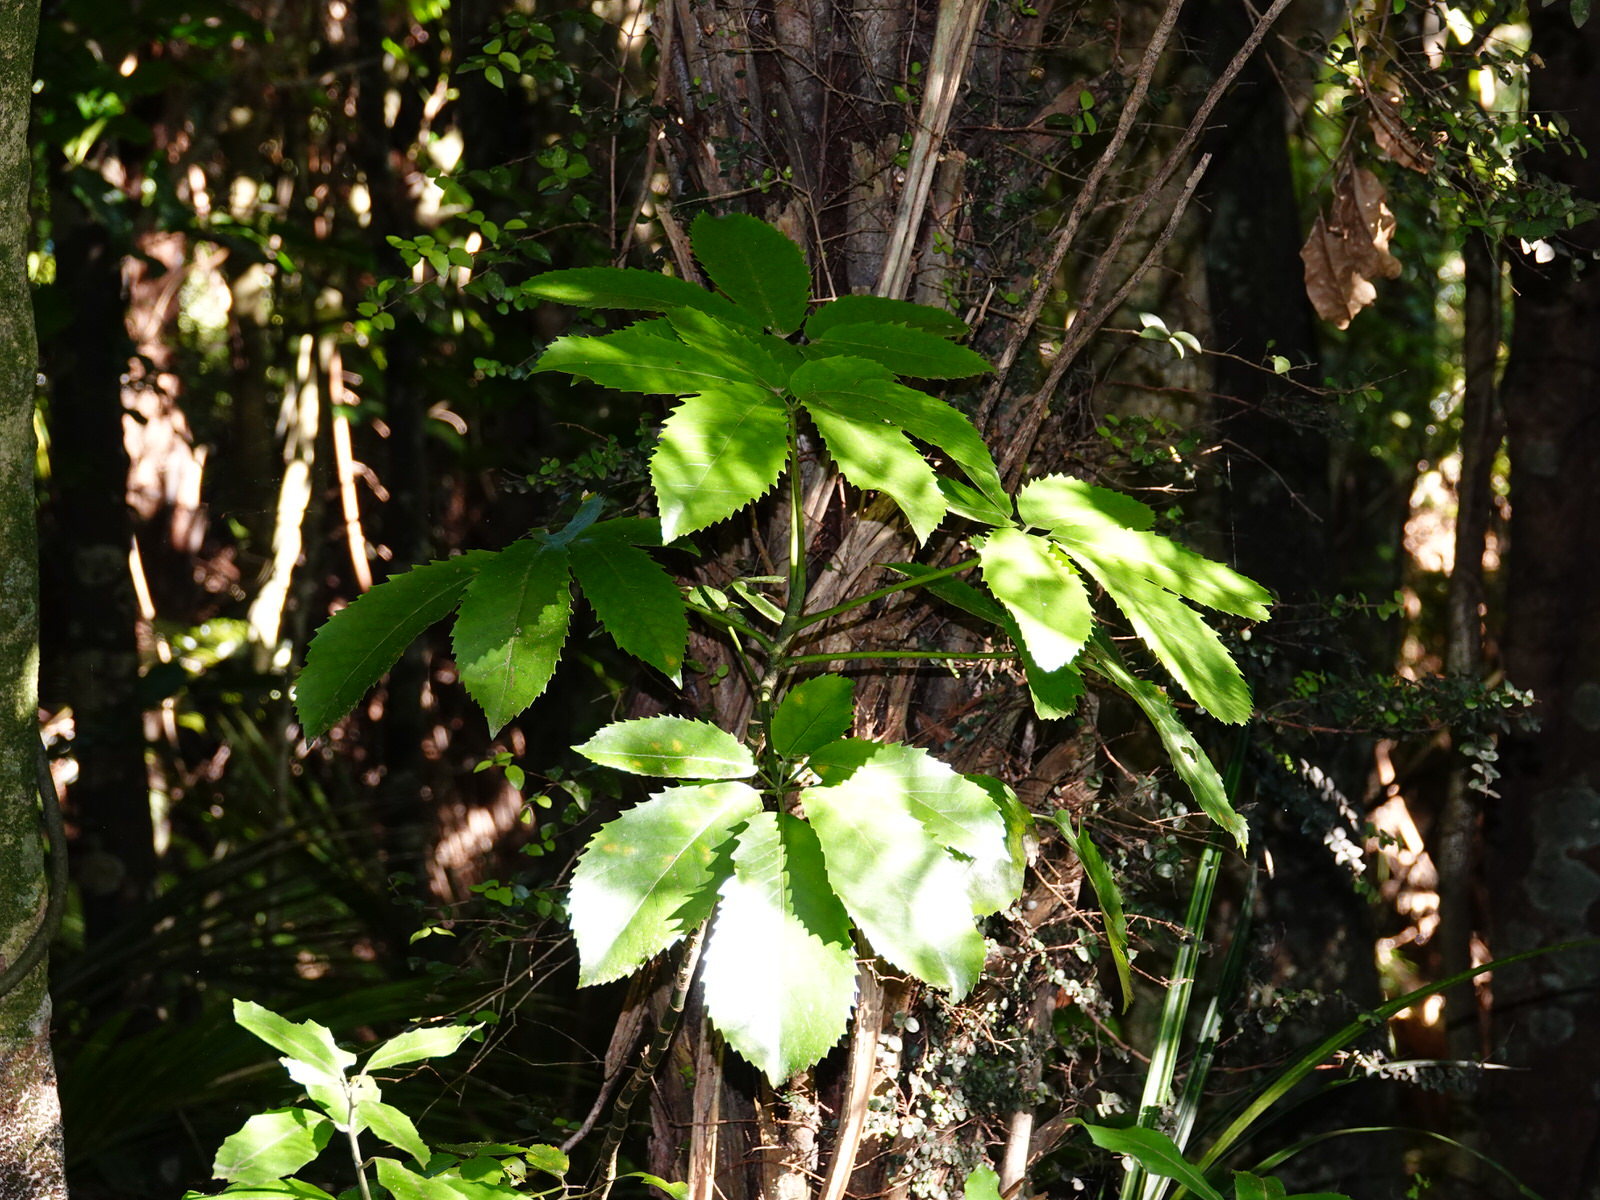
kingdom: Plantae
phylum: Tracheophyta
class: Magnoliopsida
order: Apiales
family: Araliaceae
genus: Neopanax
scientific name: Neopanax arboreus
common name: Five-fingers
